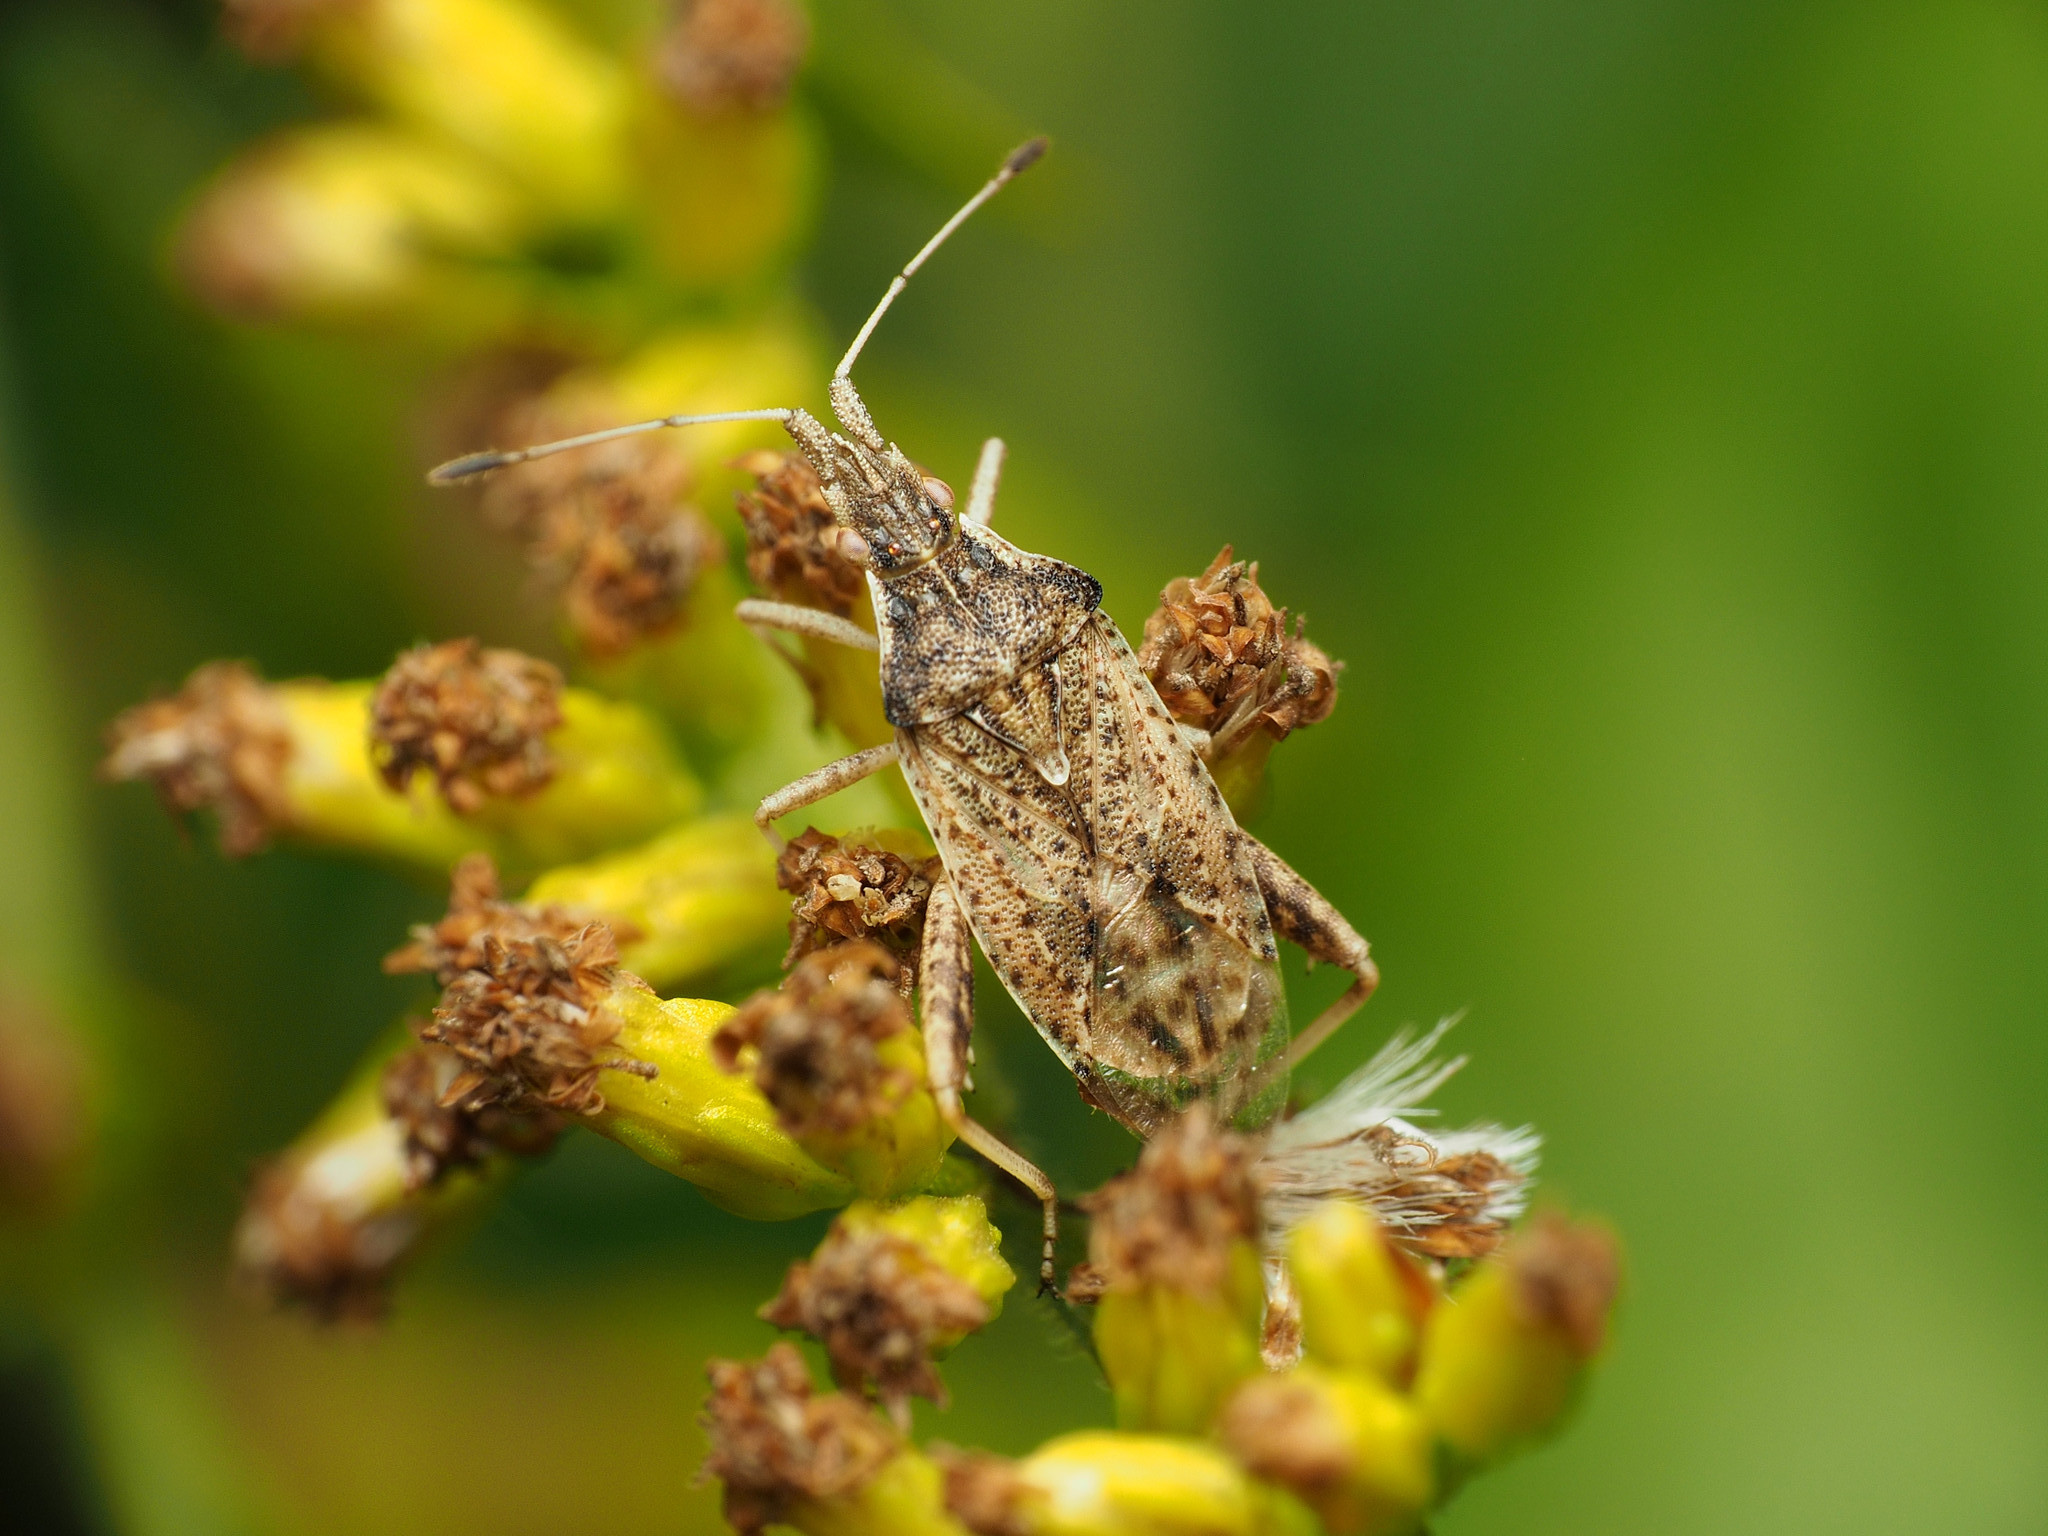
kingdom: Animalia
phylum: Arthropoda
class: Insecta
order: Hemiptera
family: Rhopalidae
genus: Harmostes
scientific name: Harmostes reflexulus
